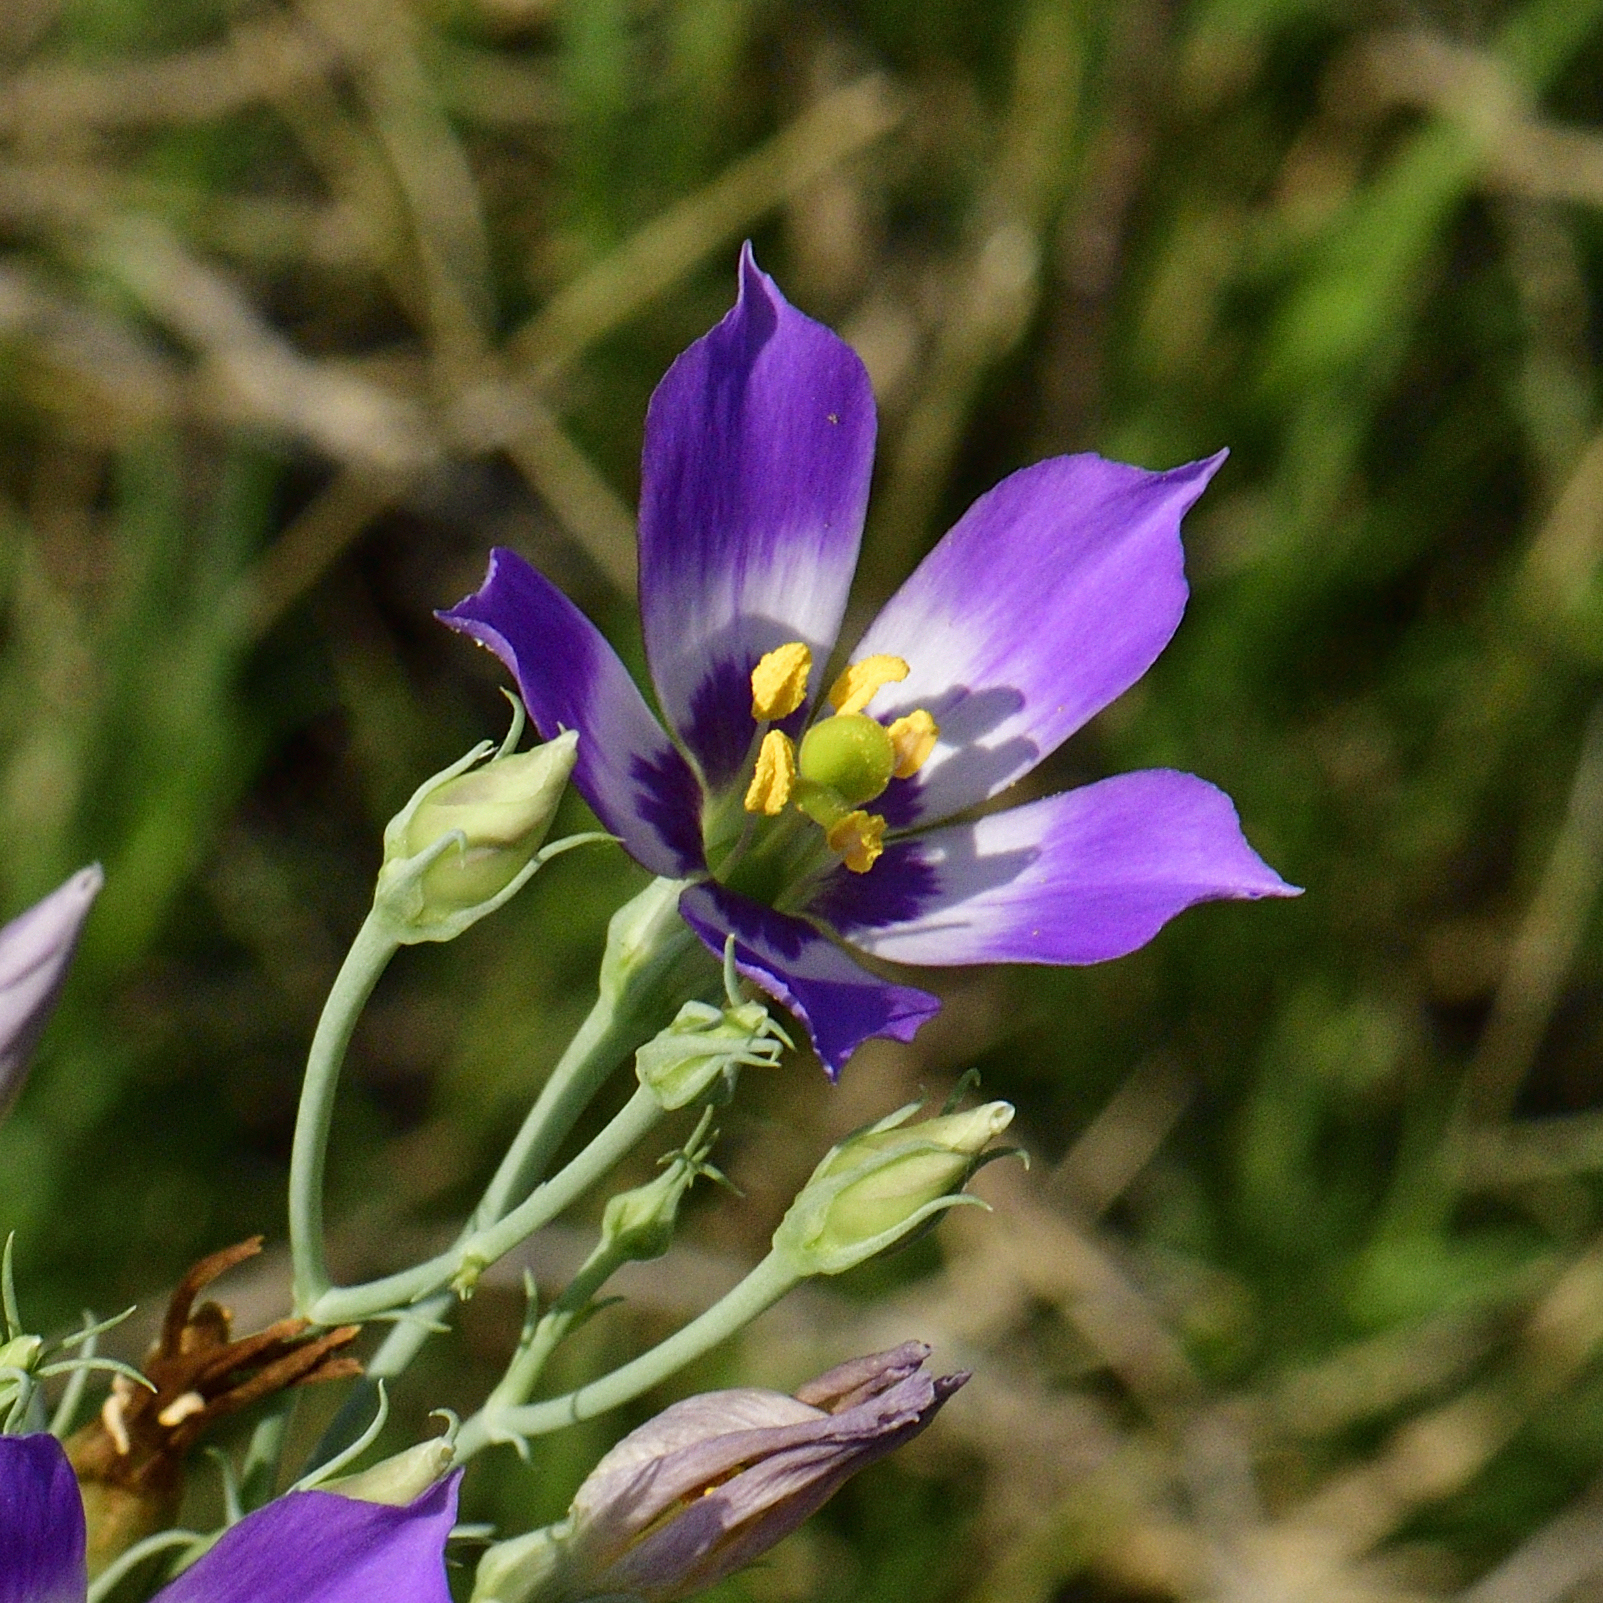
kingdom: Plantae
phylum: Tracheophyta
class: Magnoliopsida
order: Gentianales
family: Gentianaceae
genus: Eustoma
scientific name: Eustoma exaltatum
